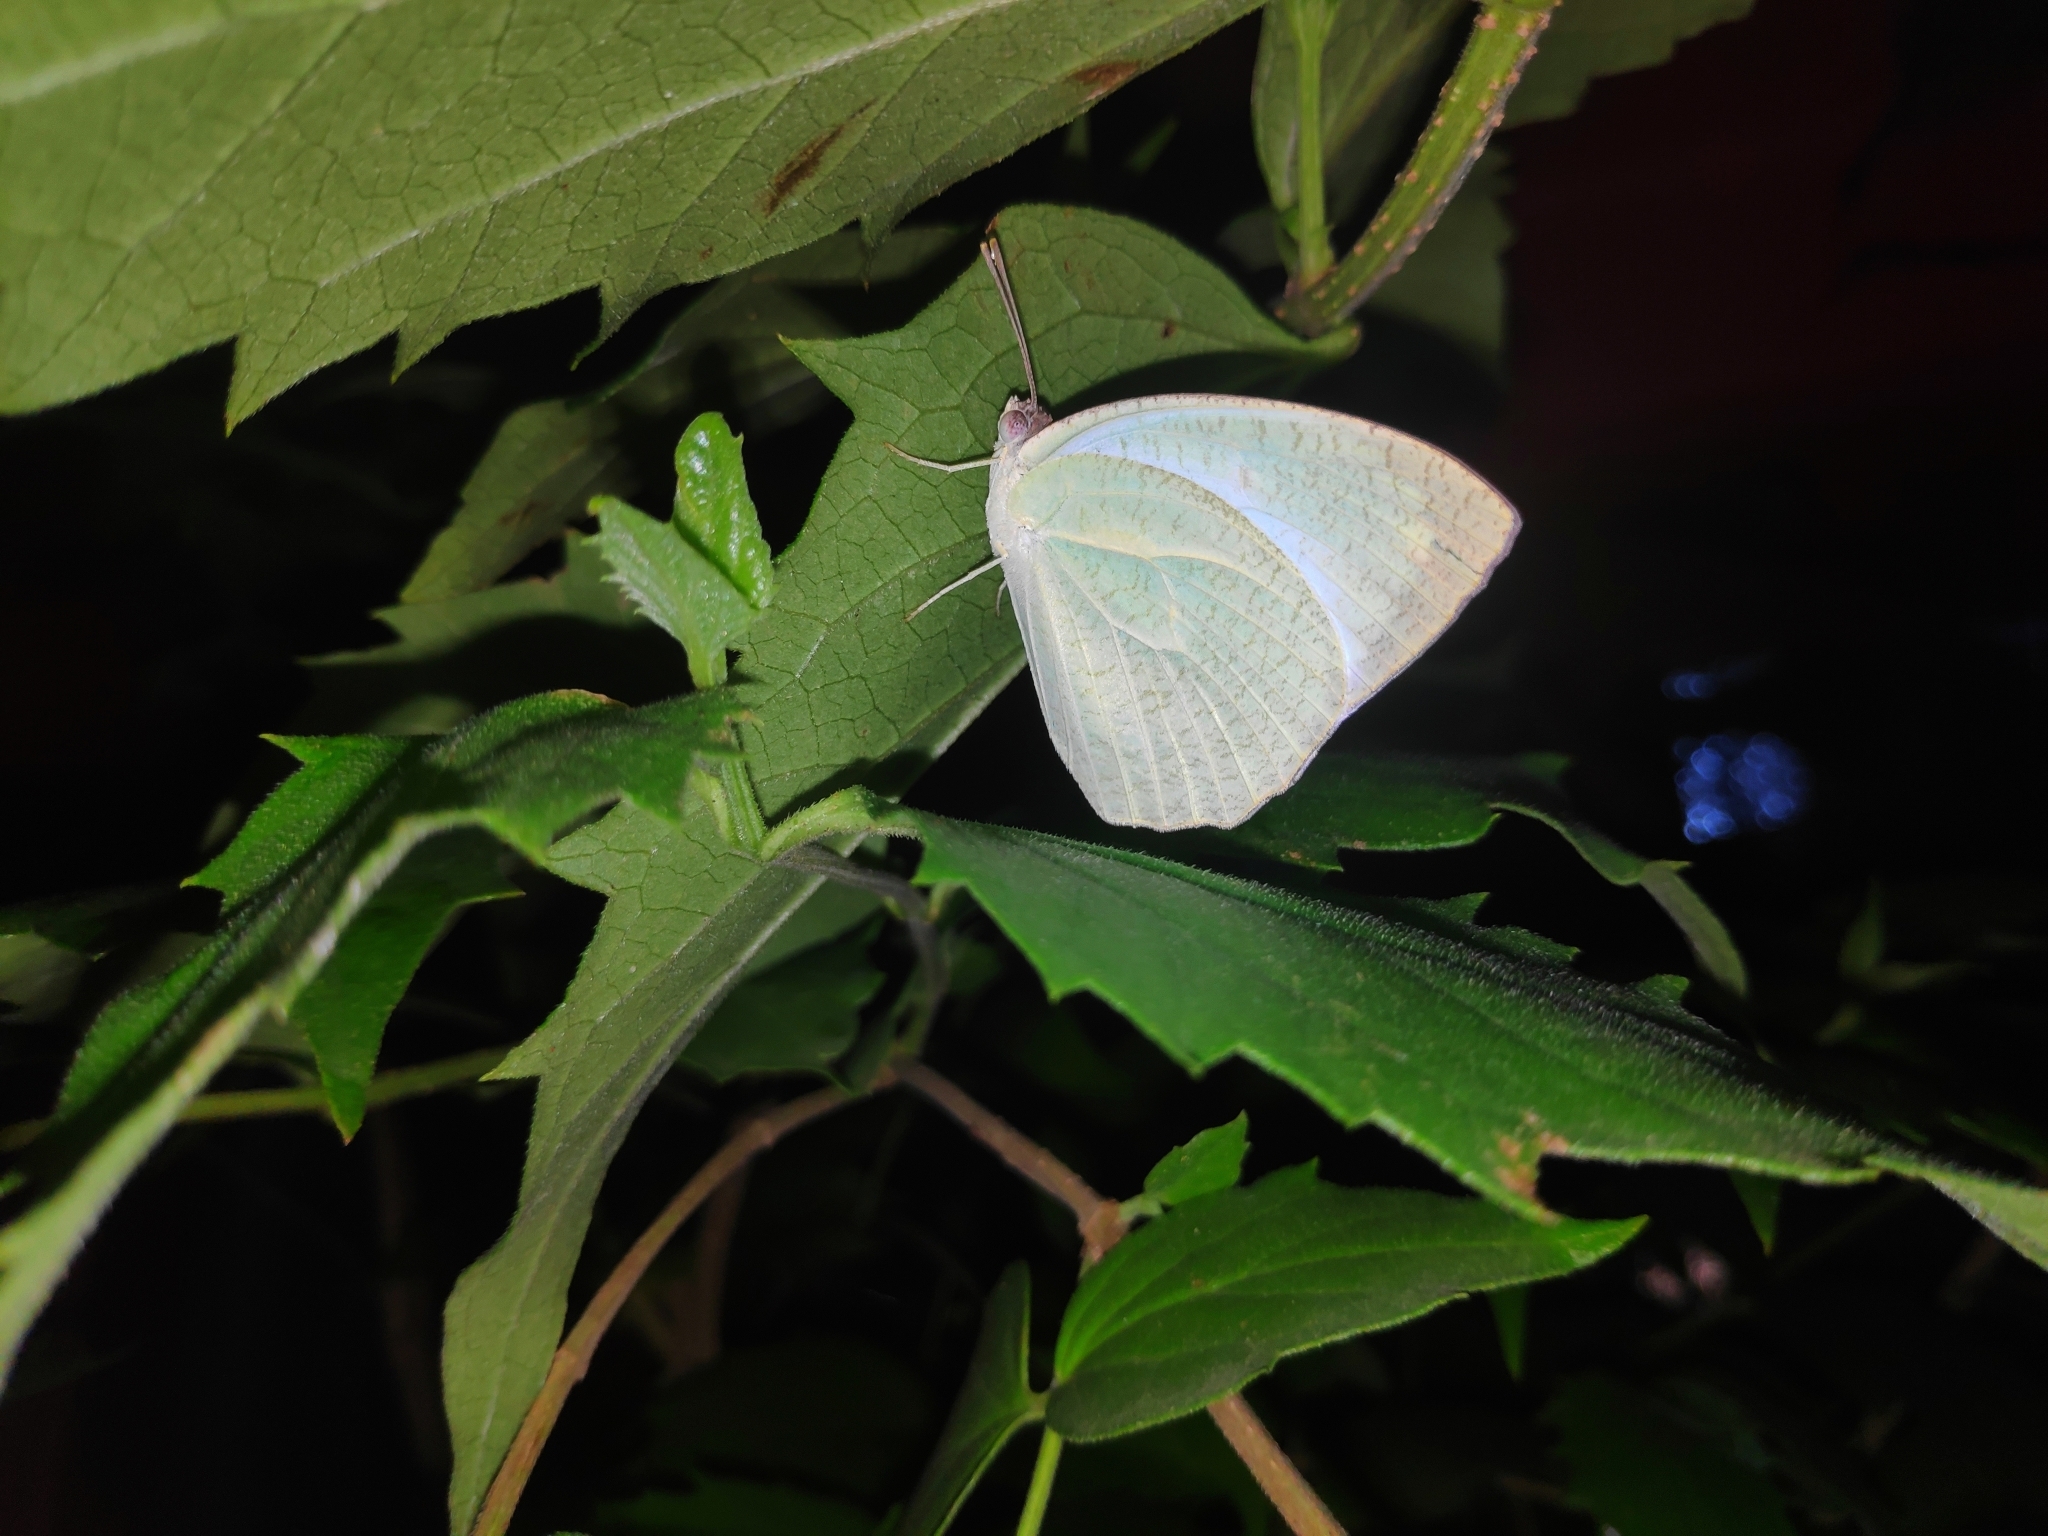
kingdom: Animalia
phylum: Arthropoda
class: Insecta
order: Lepidoptera
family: Pieridae
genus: Catopsilia
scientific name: Catopsilia pyranthe
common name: Mottled emigrant
